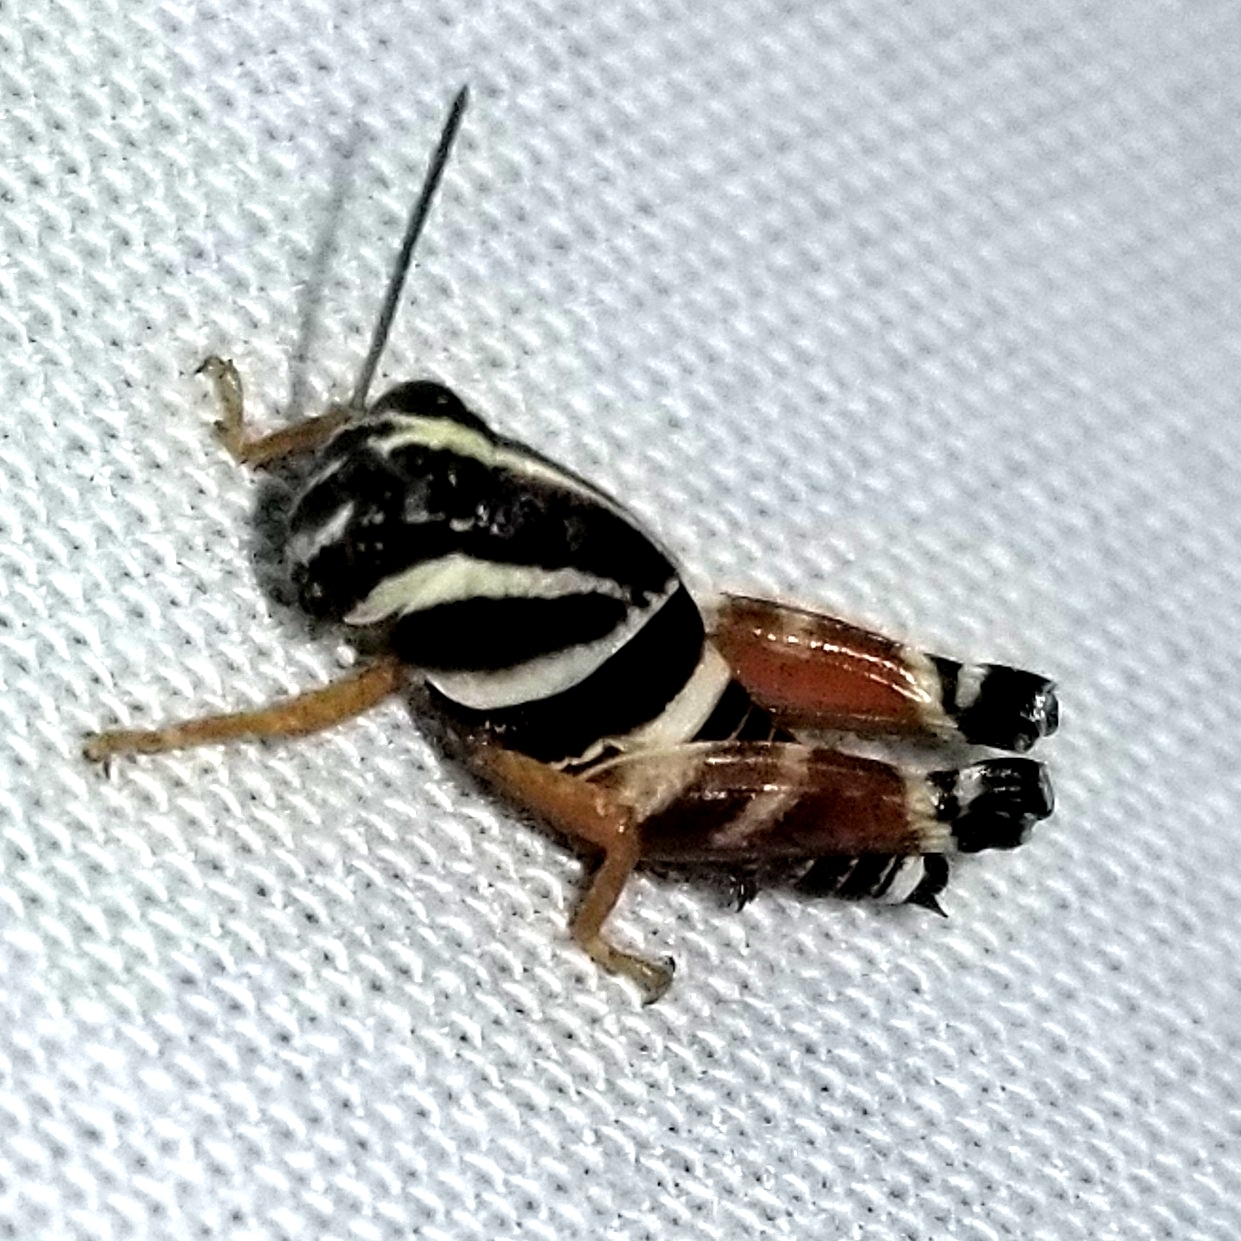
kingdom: Animalia
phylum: Arthropoda
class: Insecta
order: Orthoptera
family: Acrididae
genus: Aidemona
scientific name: Aidemona azteca
